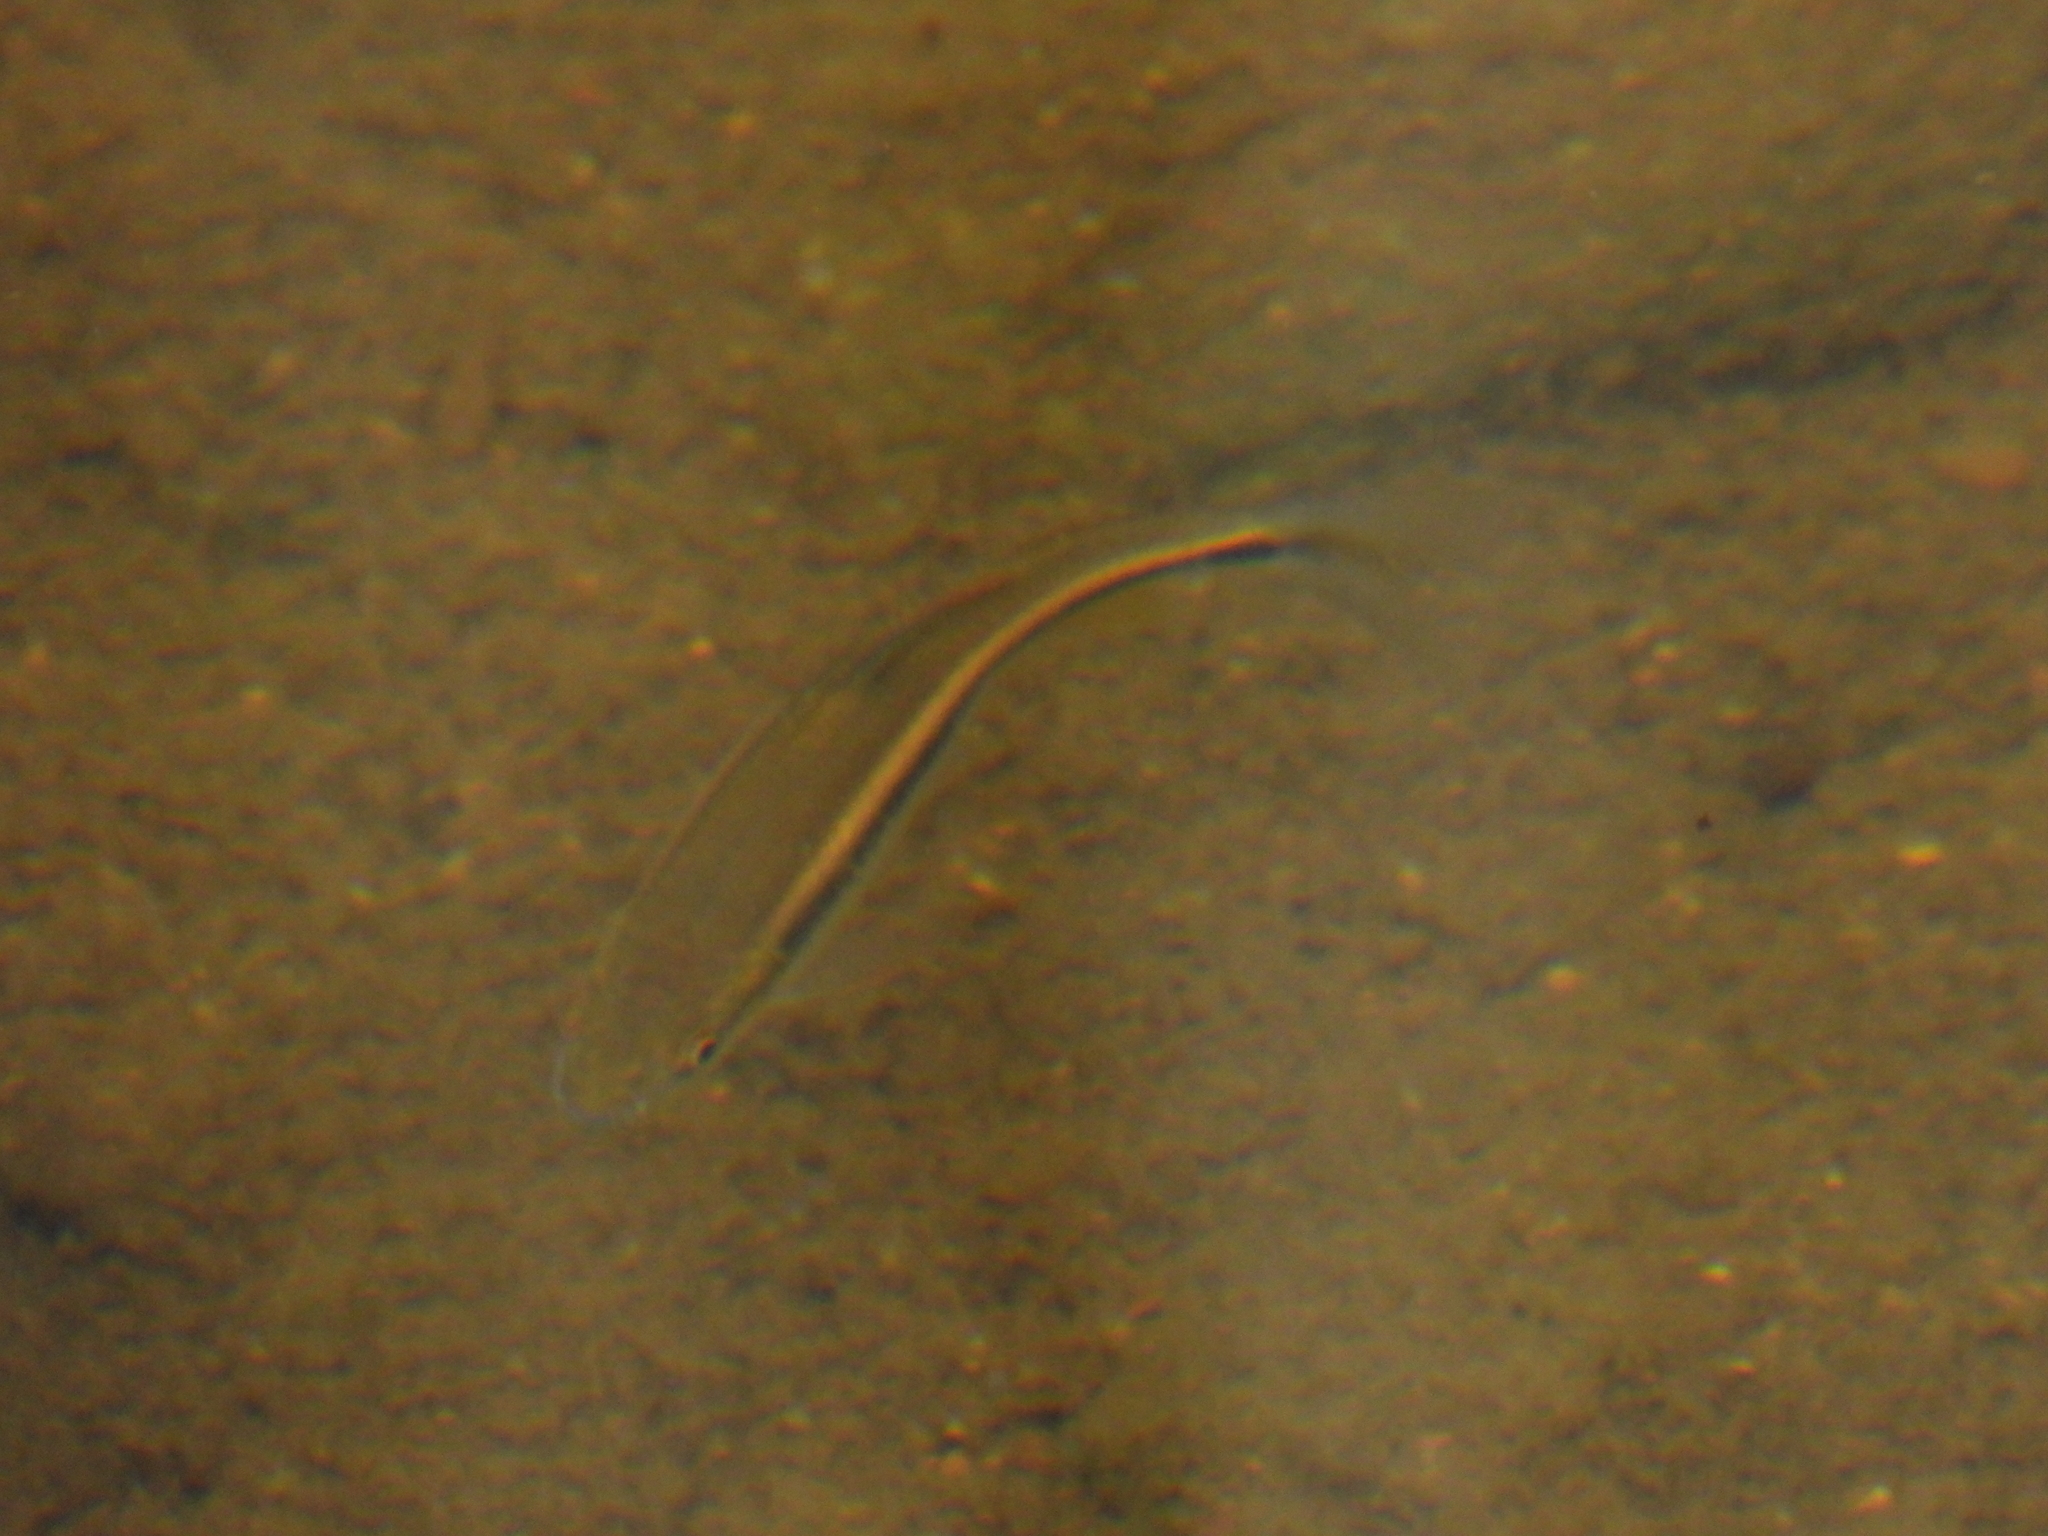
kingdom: Animalia
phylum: Chordata
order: Cypriniformes
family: Cyprinidae
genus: Candidia
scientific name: Candidia barbata
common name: Lake candidus dace
